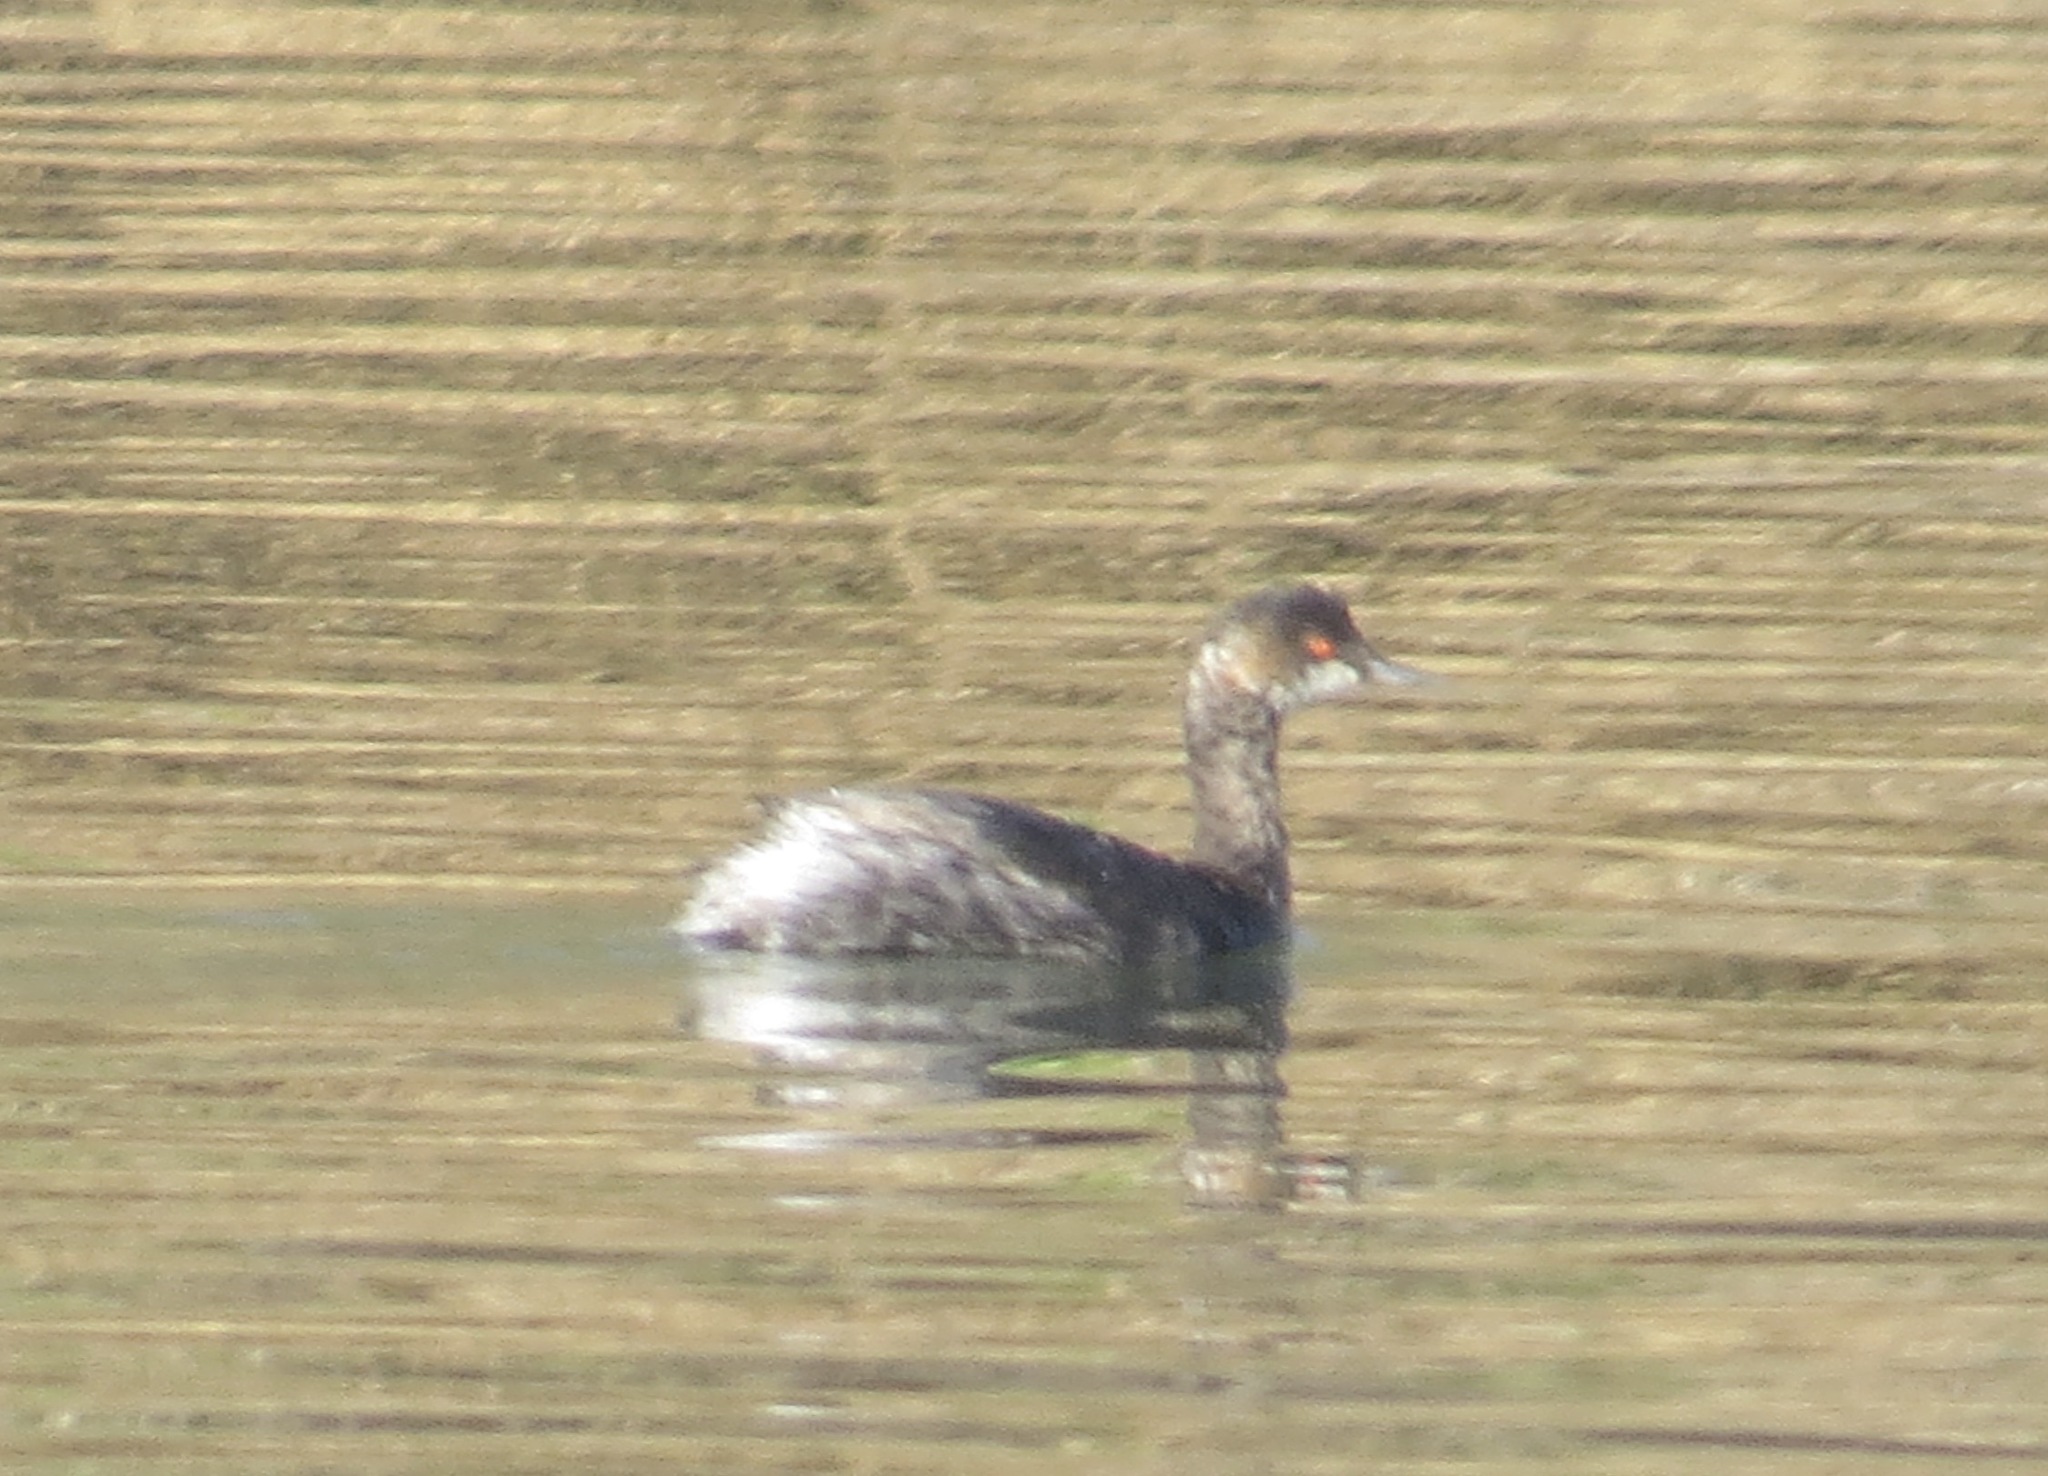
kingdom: Animalia
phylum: Chordata
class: Aves
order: Podicipediformes
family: Podicipedidae
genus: Podiceps
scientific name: Podiceps nigricollis
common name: Black-necked grebe
